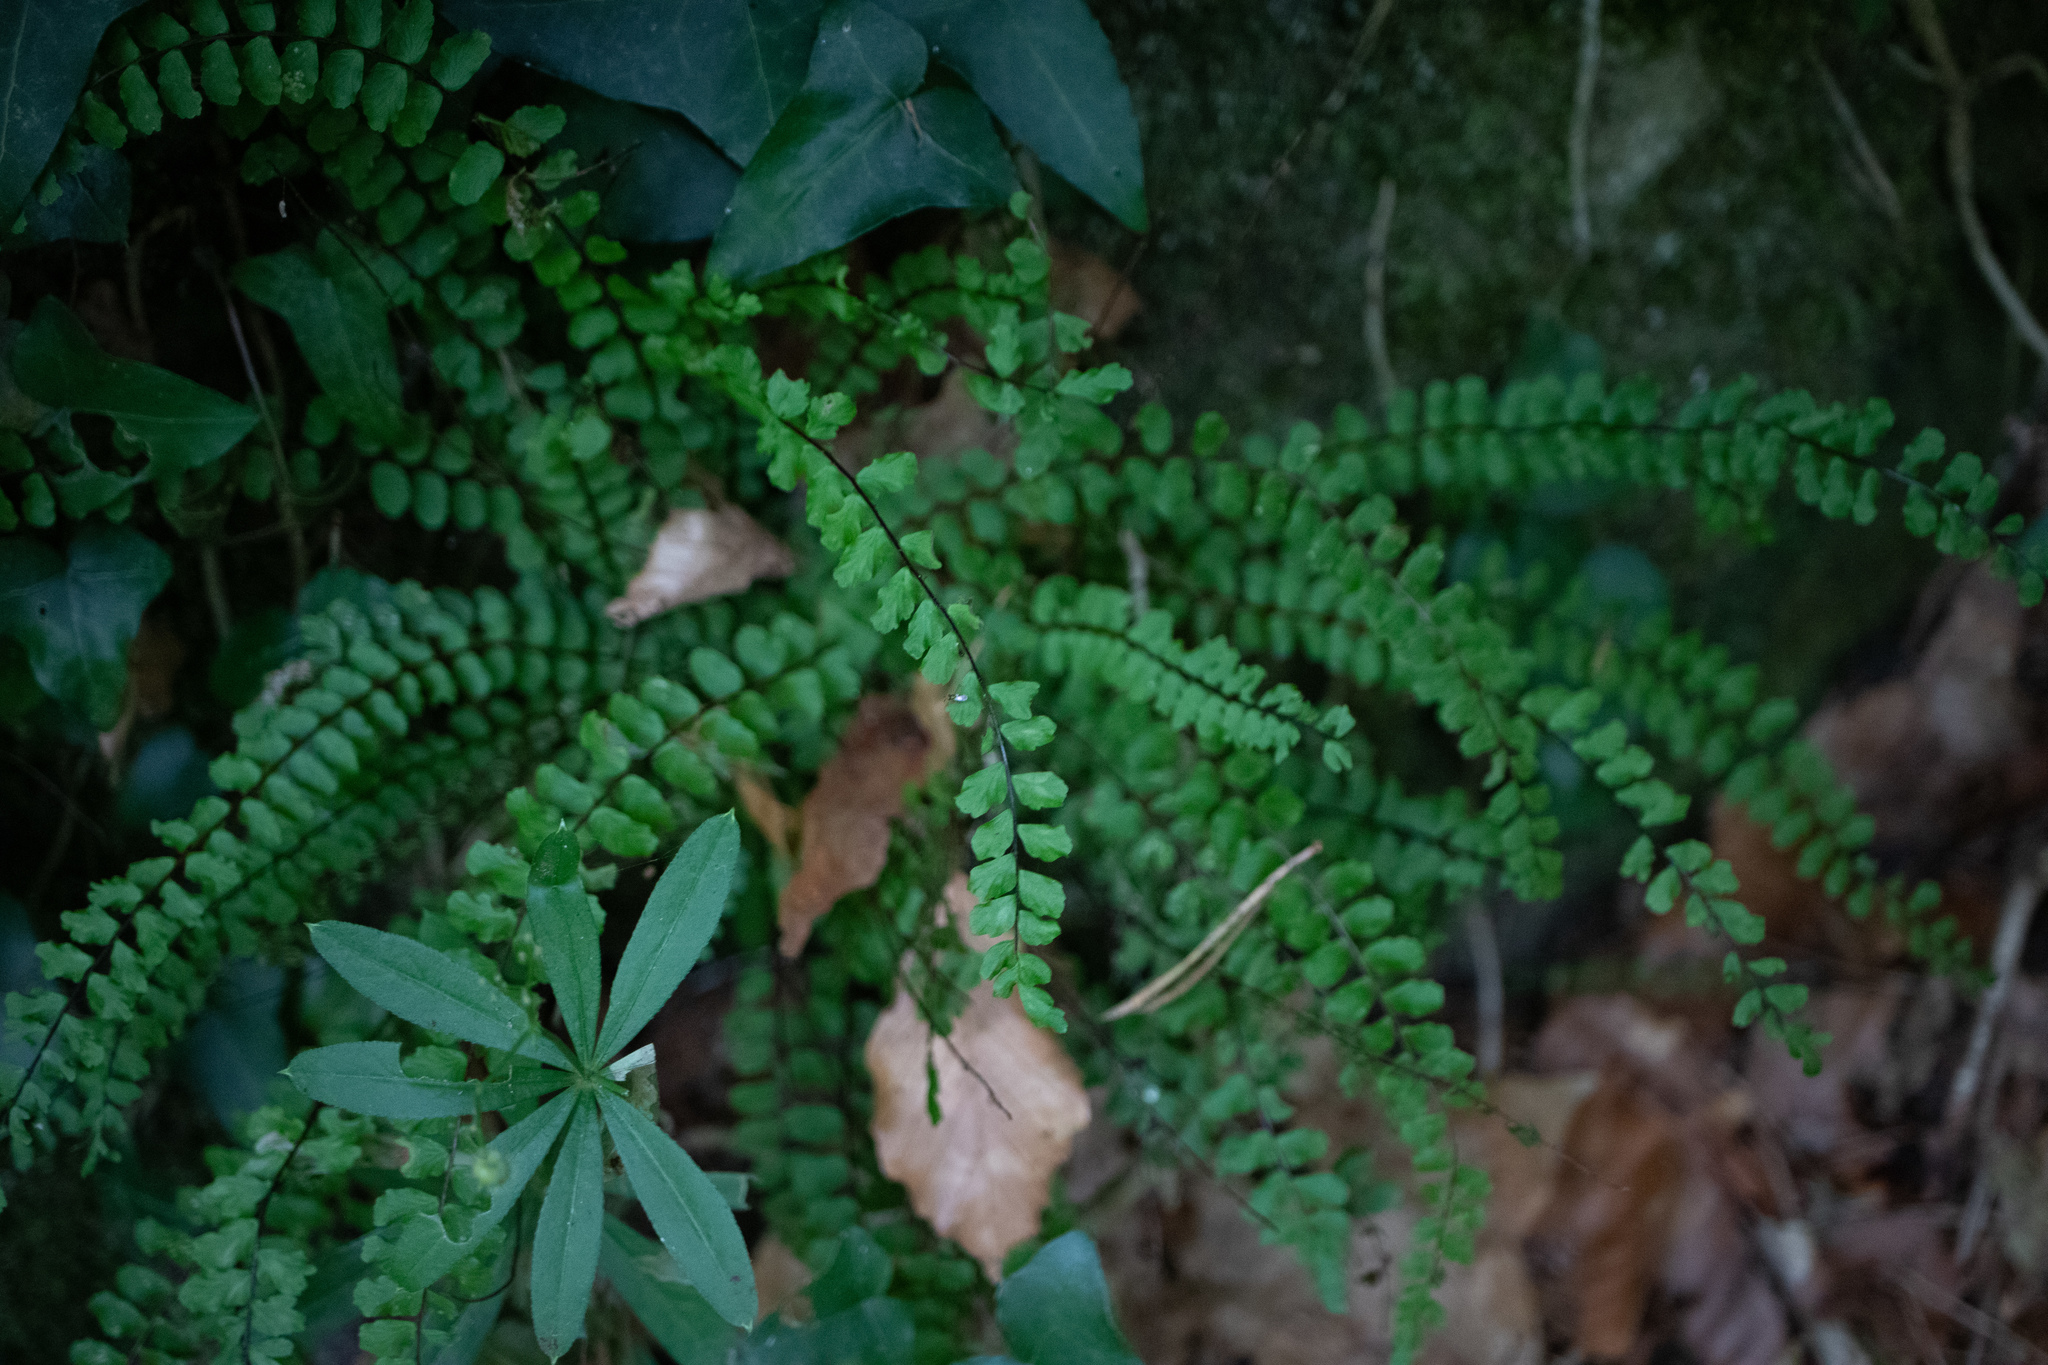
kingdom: Plantae
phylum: Tracheophyta
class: Polypodiopsida
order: Polypodiales
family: Aspleniaceae
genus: Asplenium
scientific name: Asplenium trichomanes
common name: Maidenhair spleenwort
